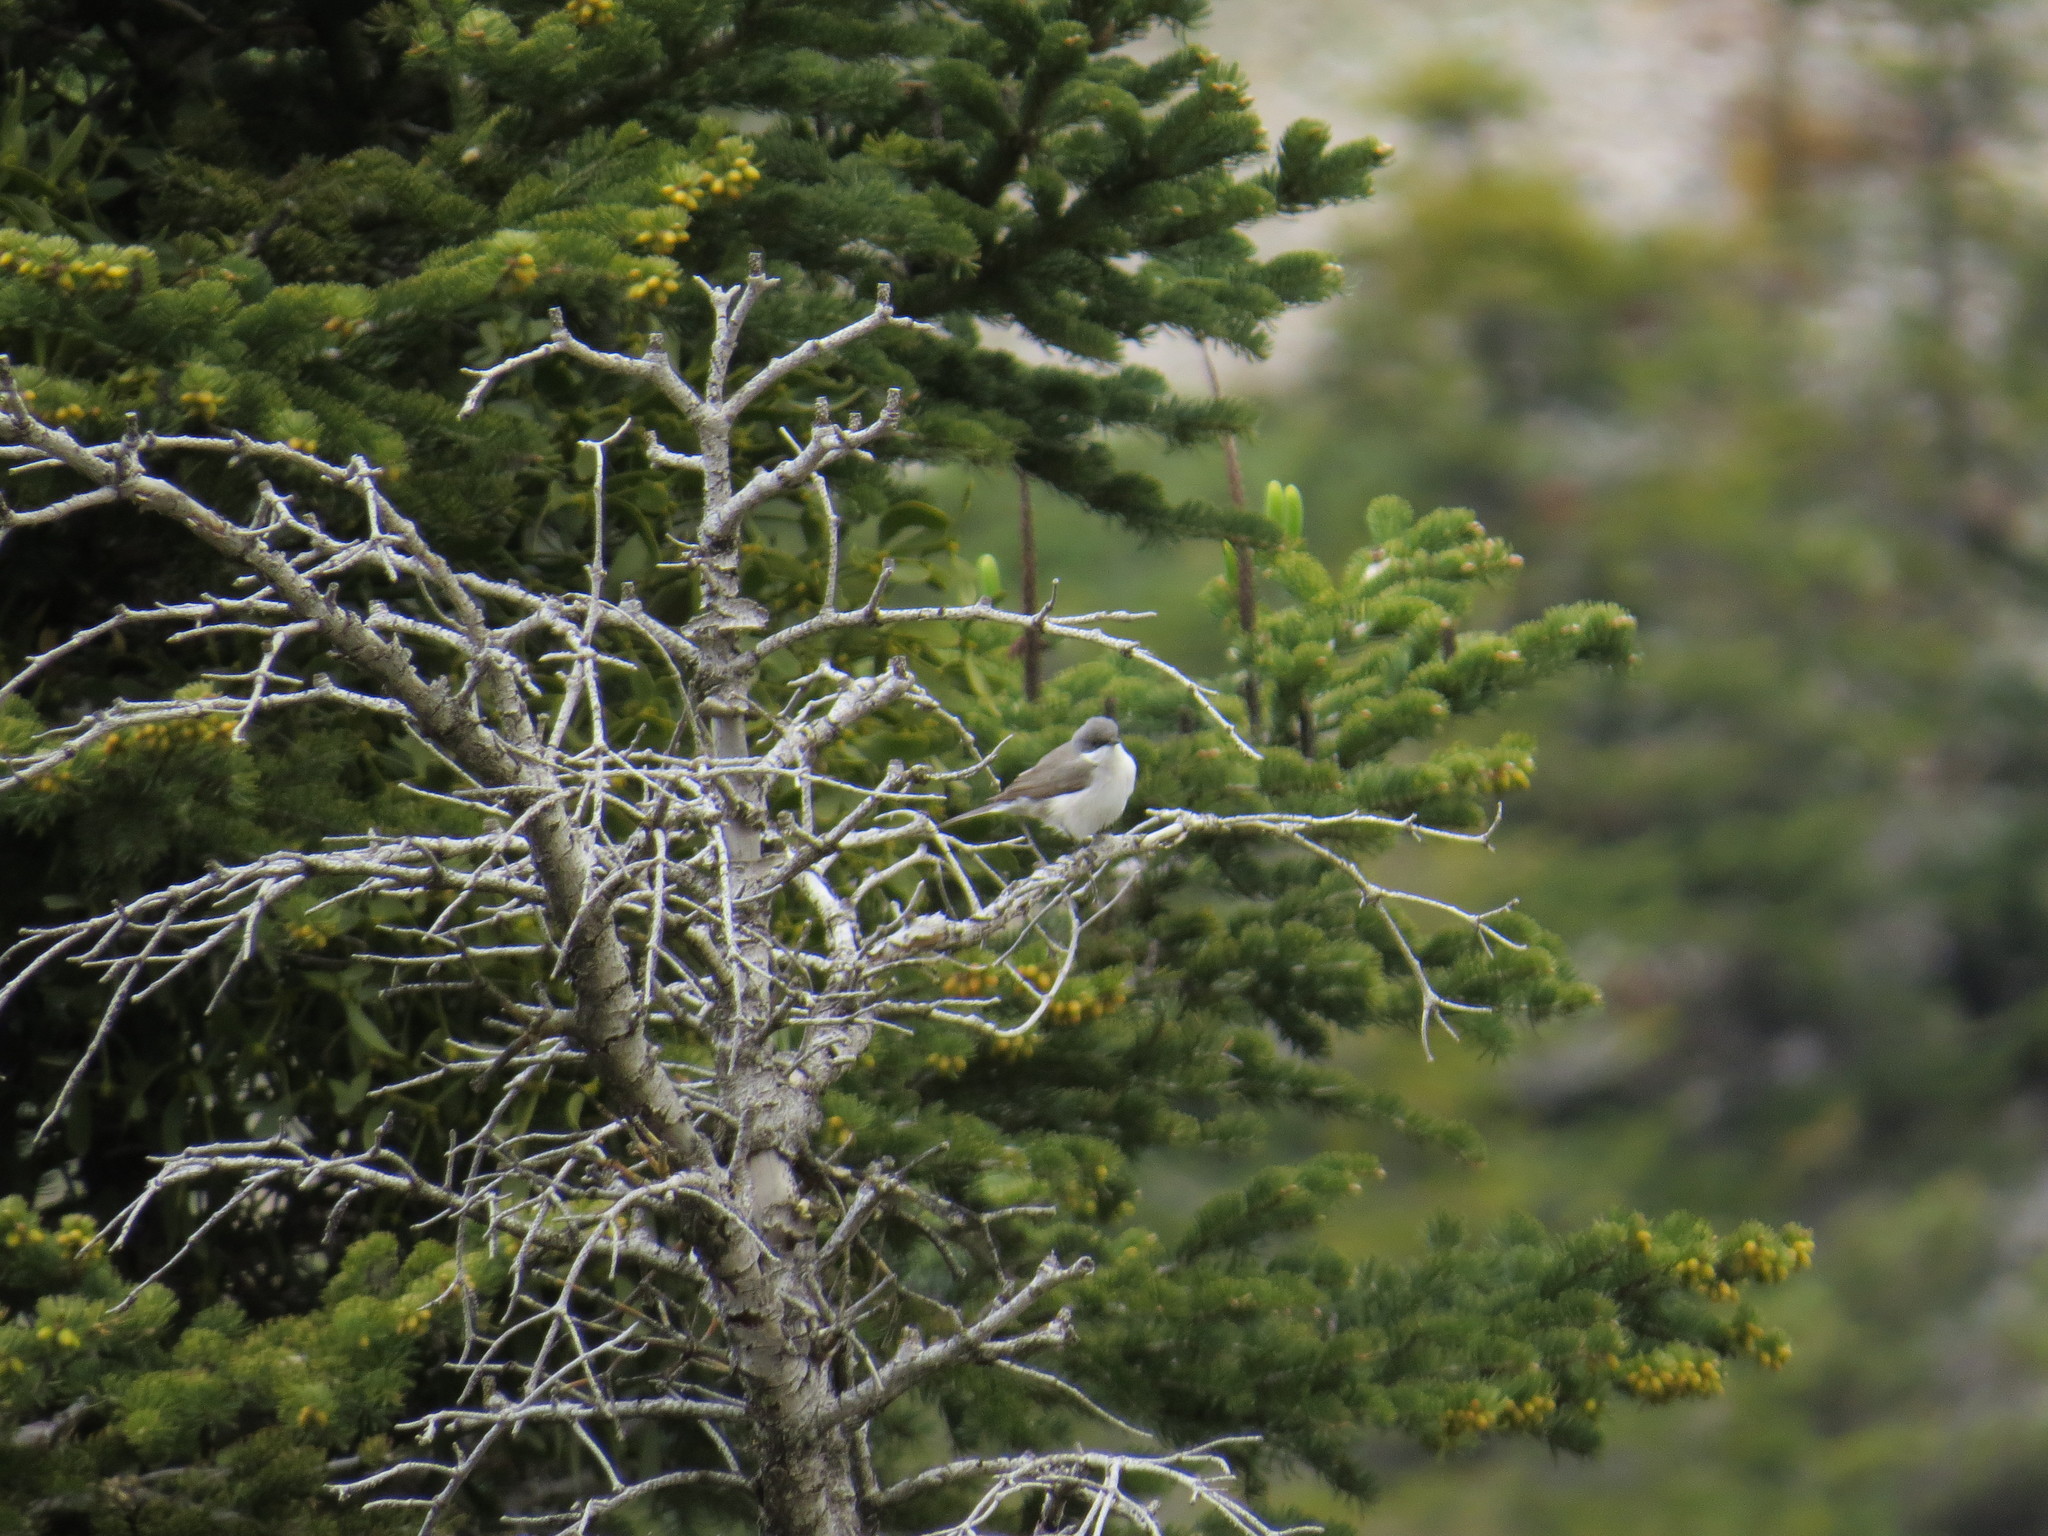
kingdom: Animalia
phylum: Chordata
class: Aves
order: Passeriformes
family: Sylviidae
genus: Sylvia
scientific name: Sylvia curruca
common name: Lesser whitethroat
